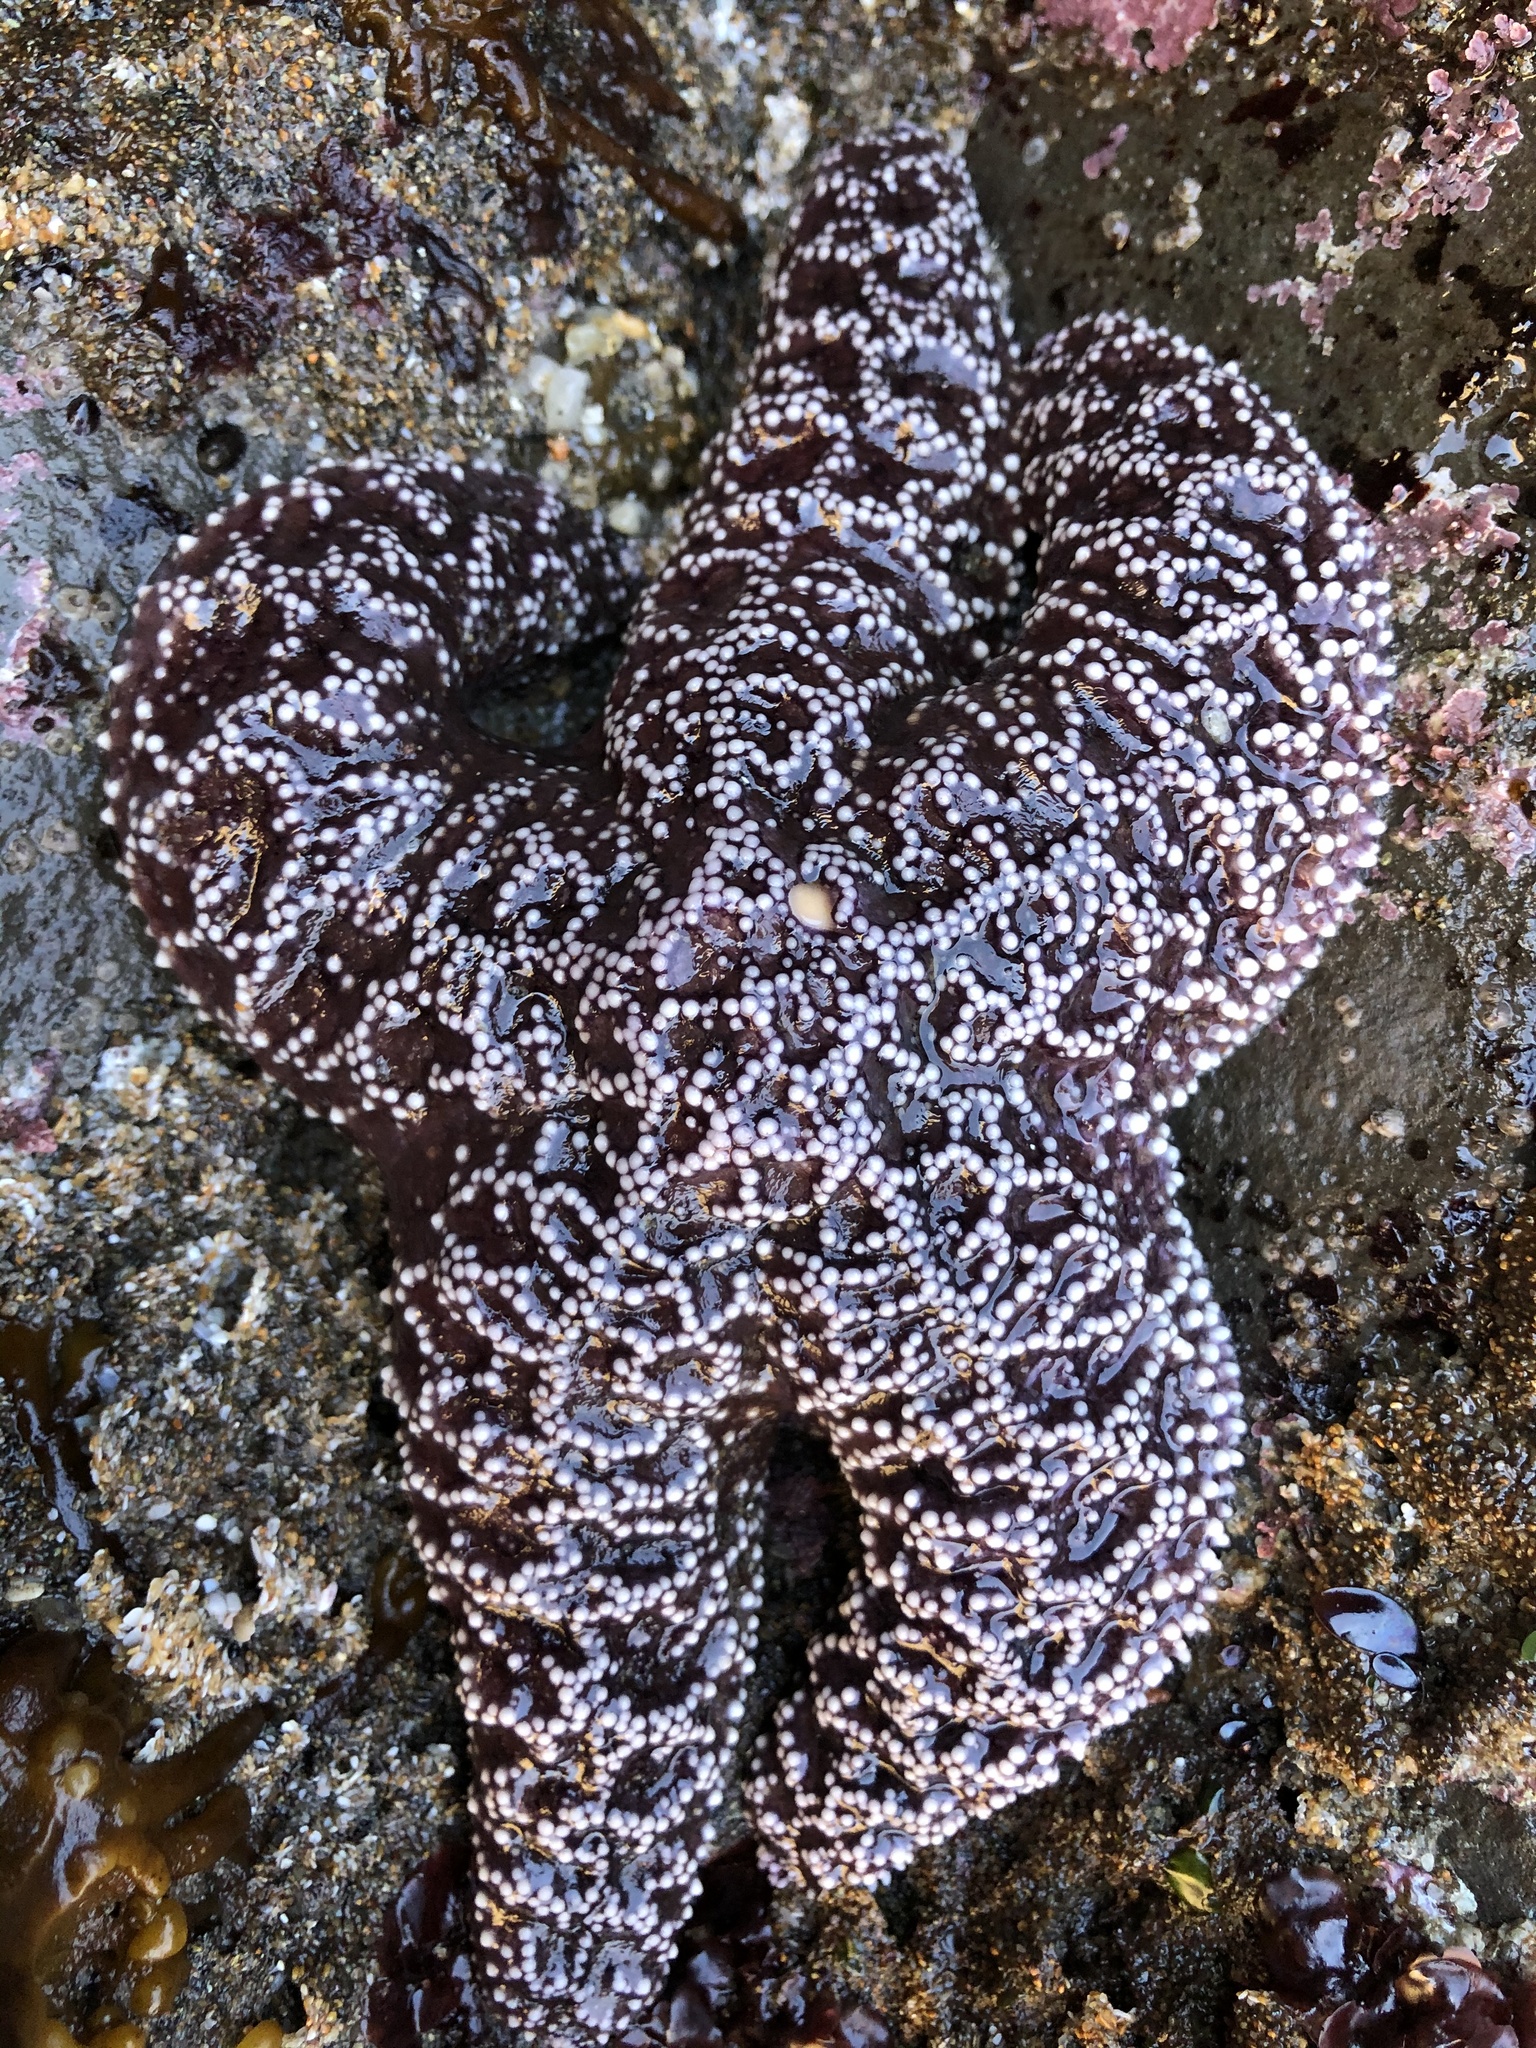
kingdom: Animalia
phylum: Echinodermata
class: Asteroidea
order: Forcipulatida
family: Asteriidae
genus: Pisaster
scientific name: Pisaster ochraceus
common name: Ochre stars
